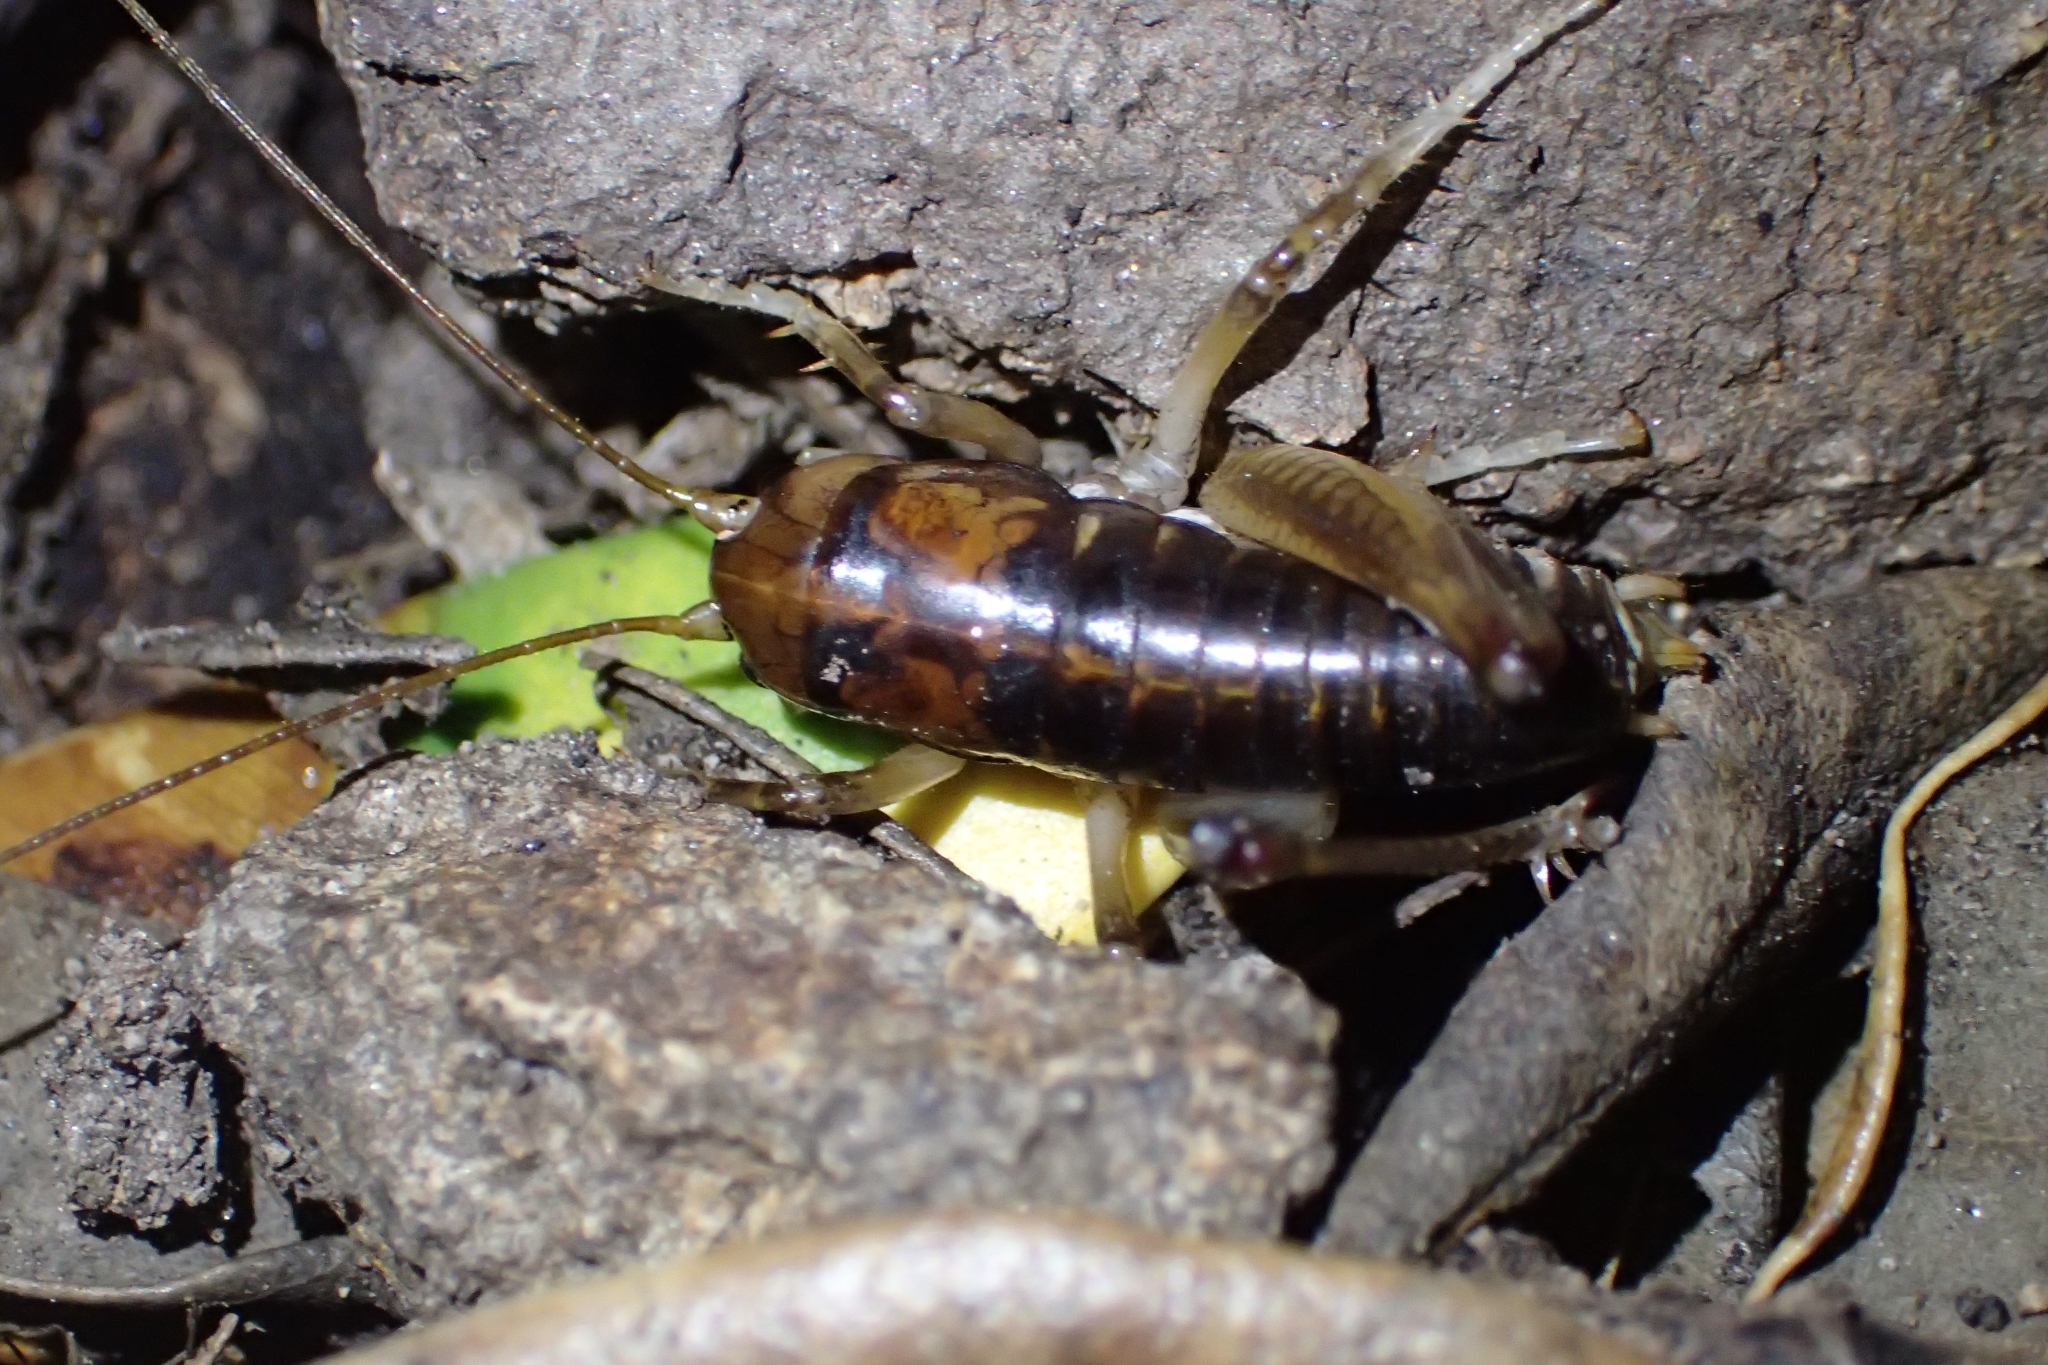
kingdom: Animalia
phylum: Arthropoda
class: Insecta
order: Orthoptera
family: Anostostomatidae
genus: Hemiandrus
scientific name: Hemiandrus pallitarsis
